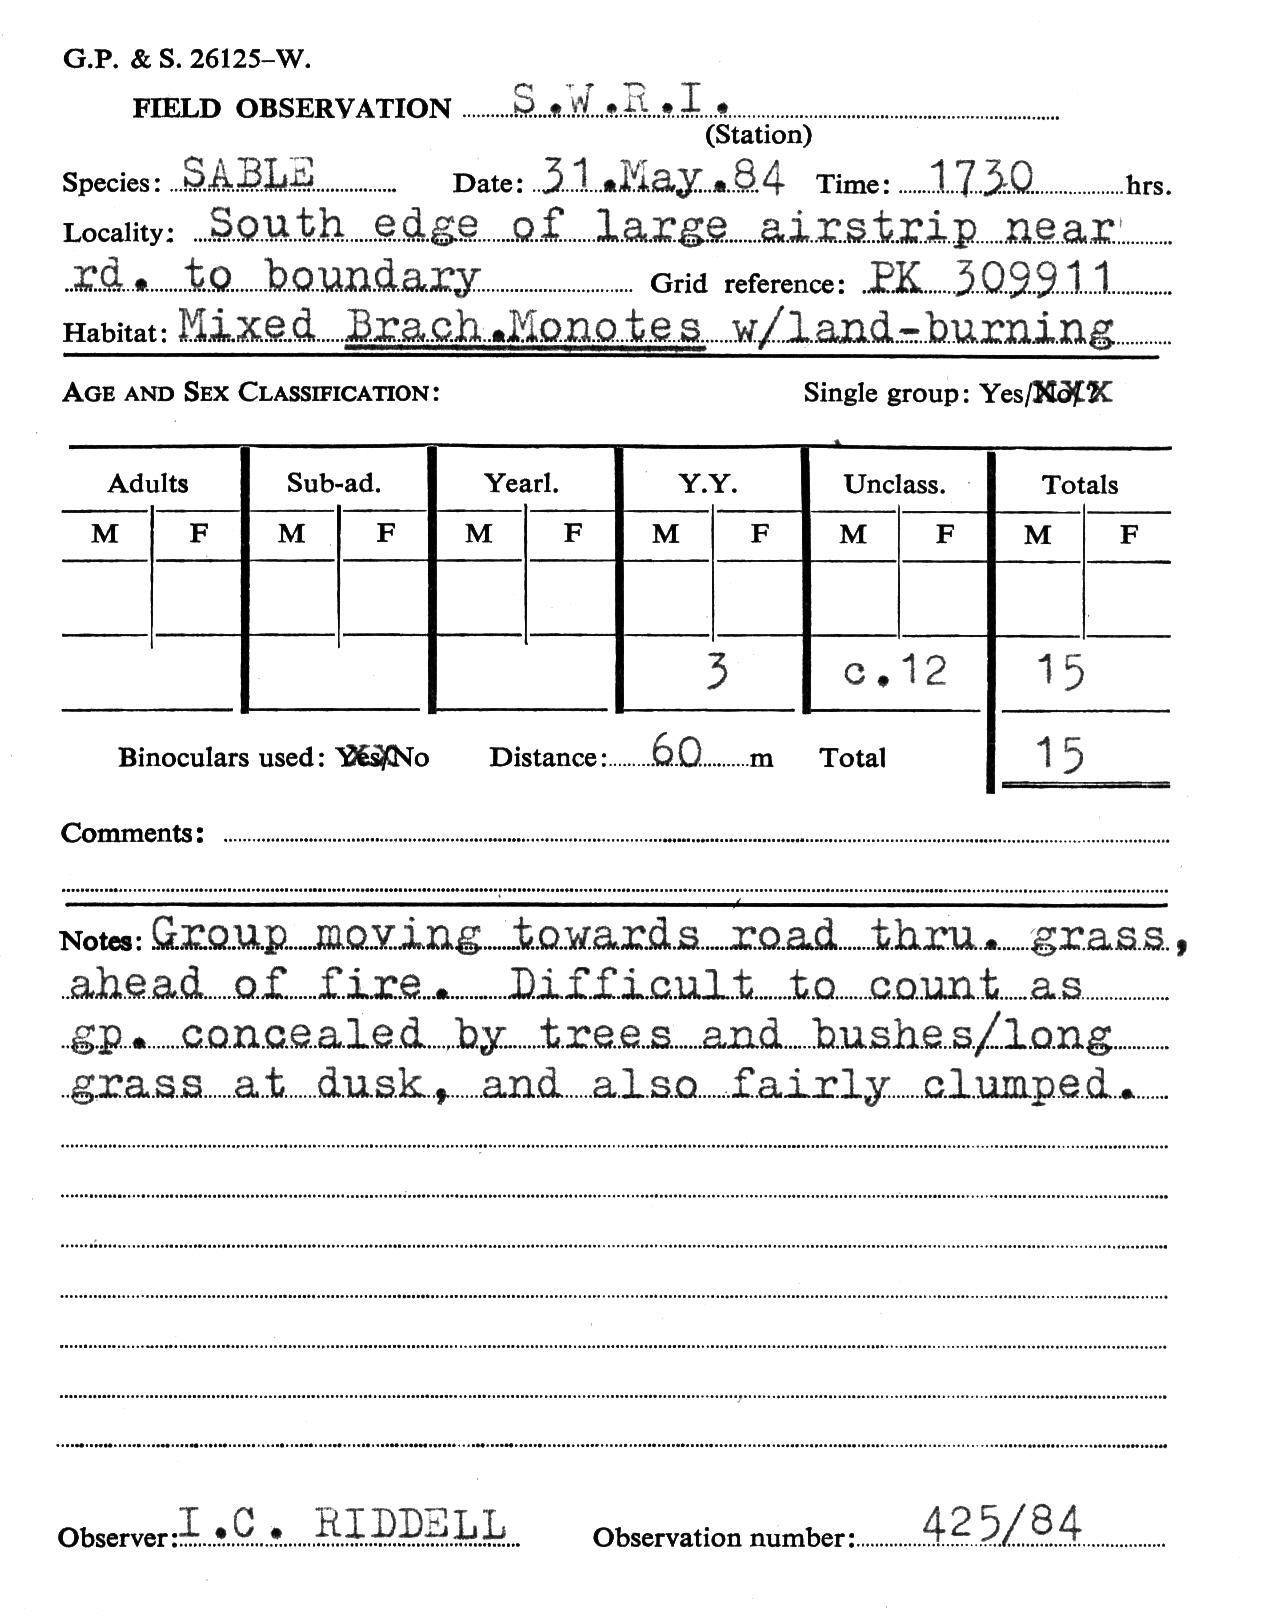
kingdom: Animalia
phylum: Chordata
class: Mammalia
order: Artiodactyla
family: Bovidae
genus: Hippotragus
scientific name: Hippotragus niger
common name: Sable antelope
